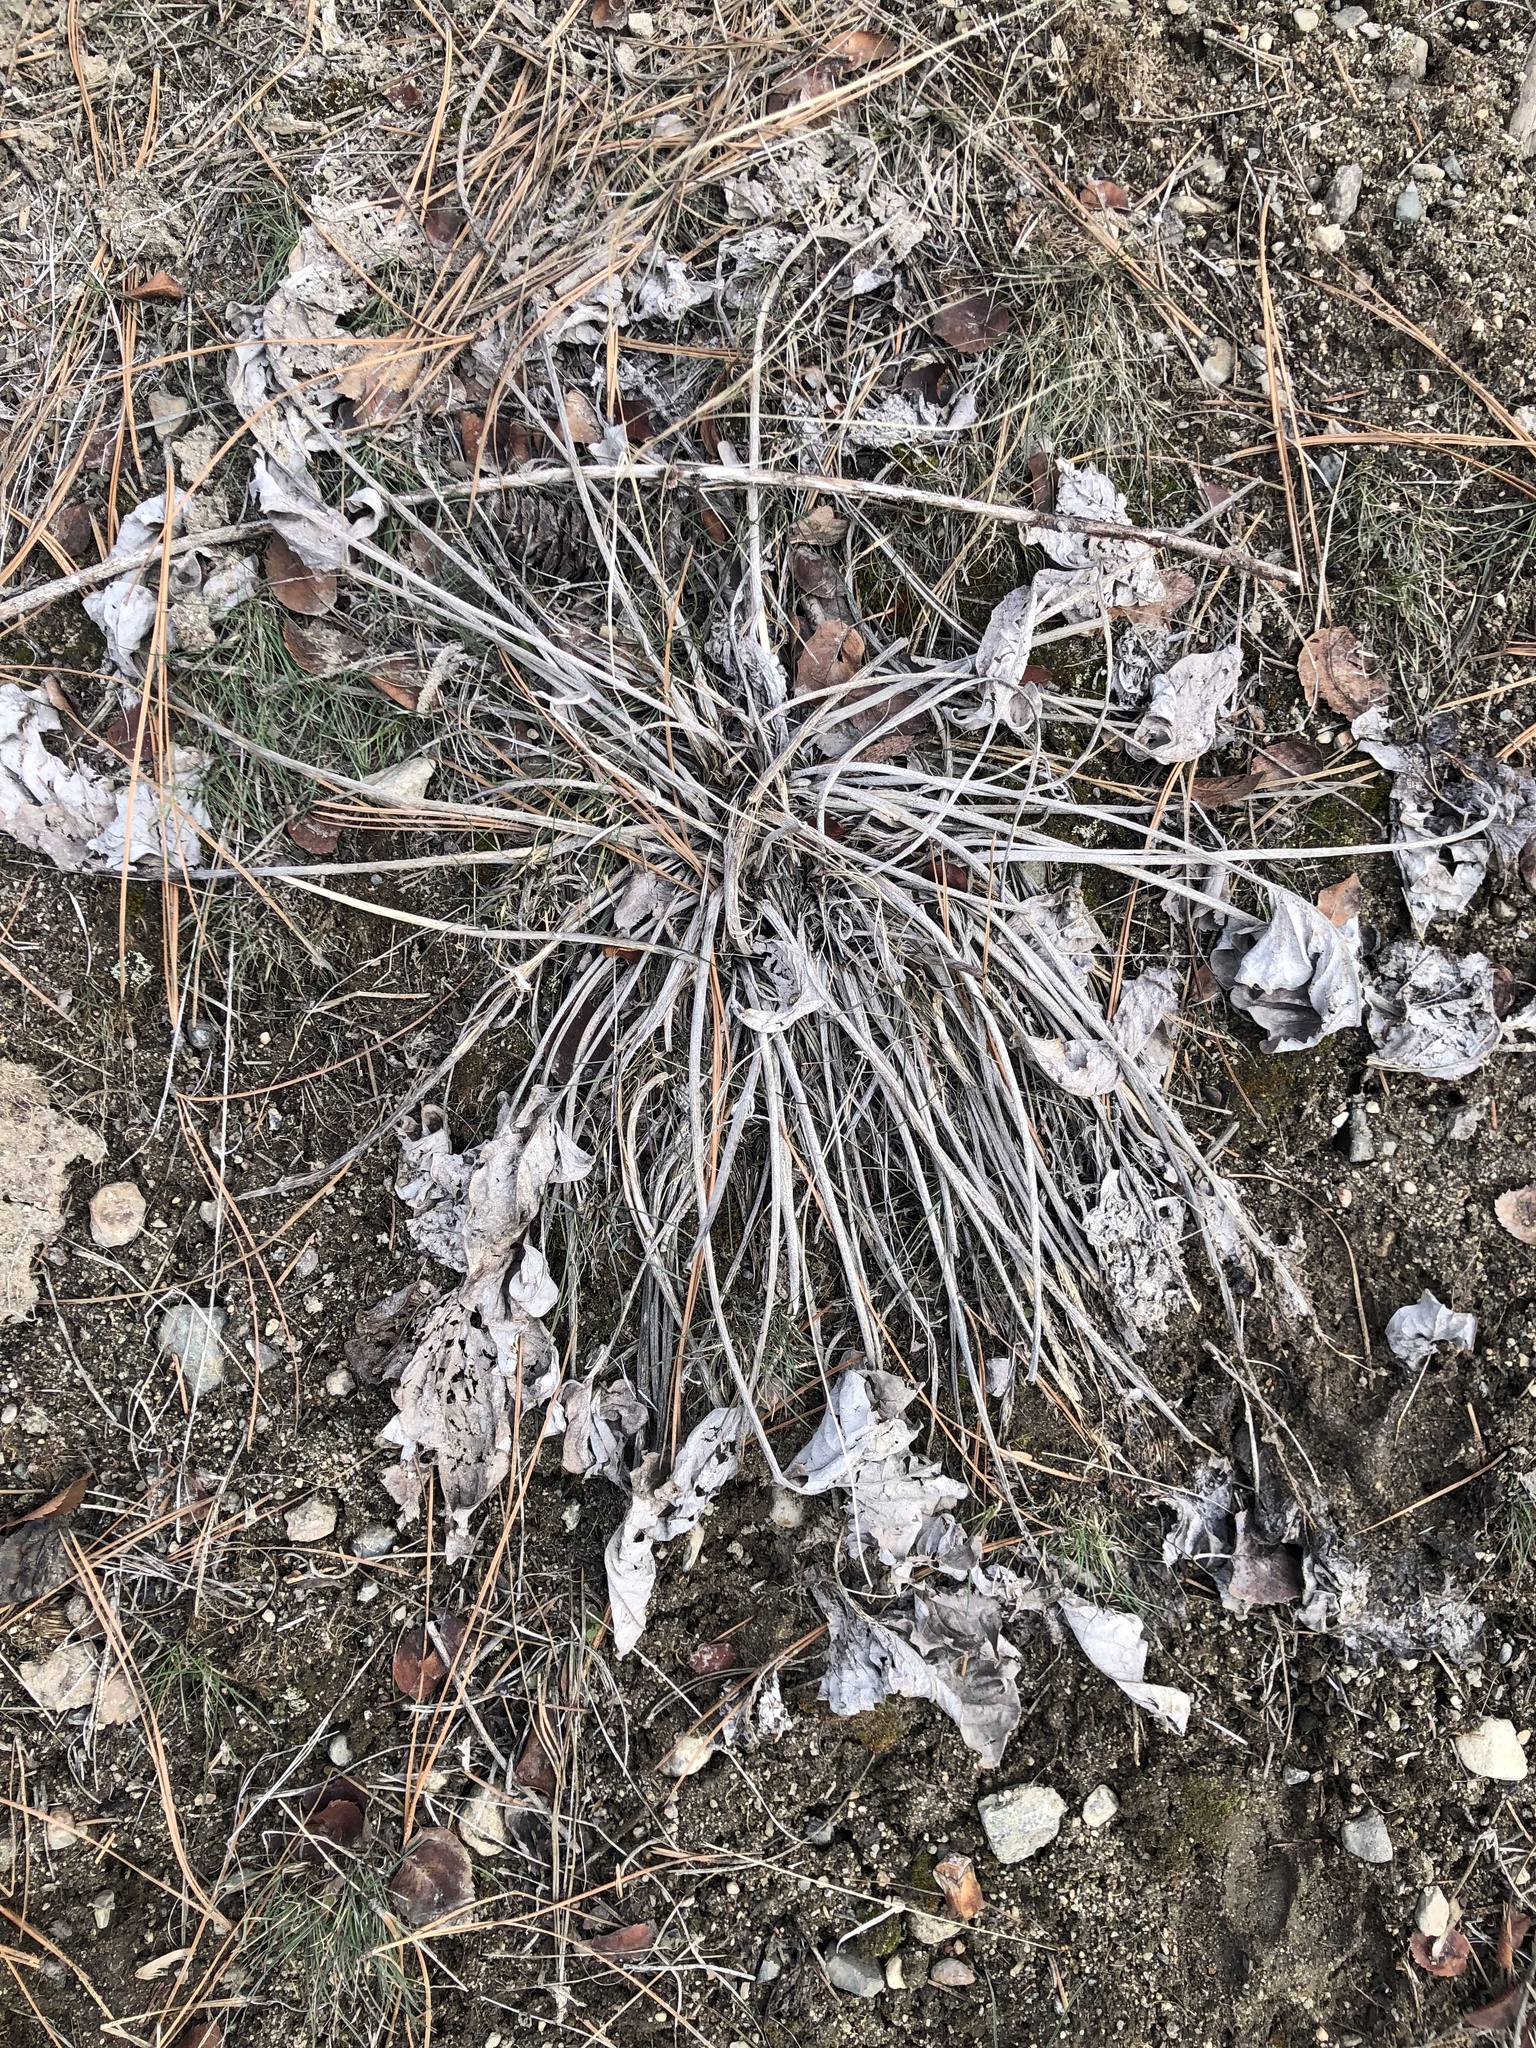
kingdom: Plantae
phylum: Tracheophyta
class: Magnoliopsida
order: Asterales
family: Asteraceae
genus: Wyethia
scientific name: Wyethia sagittata
